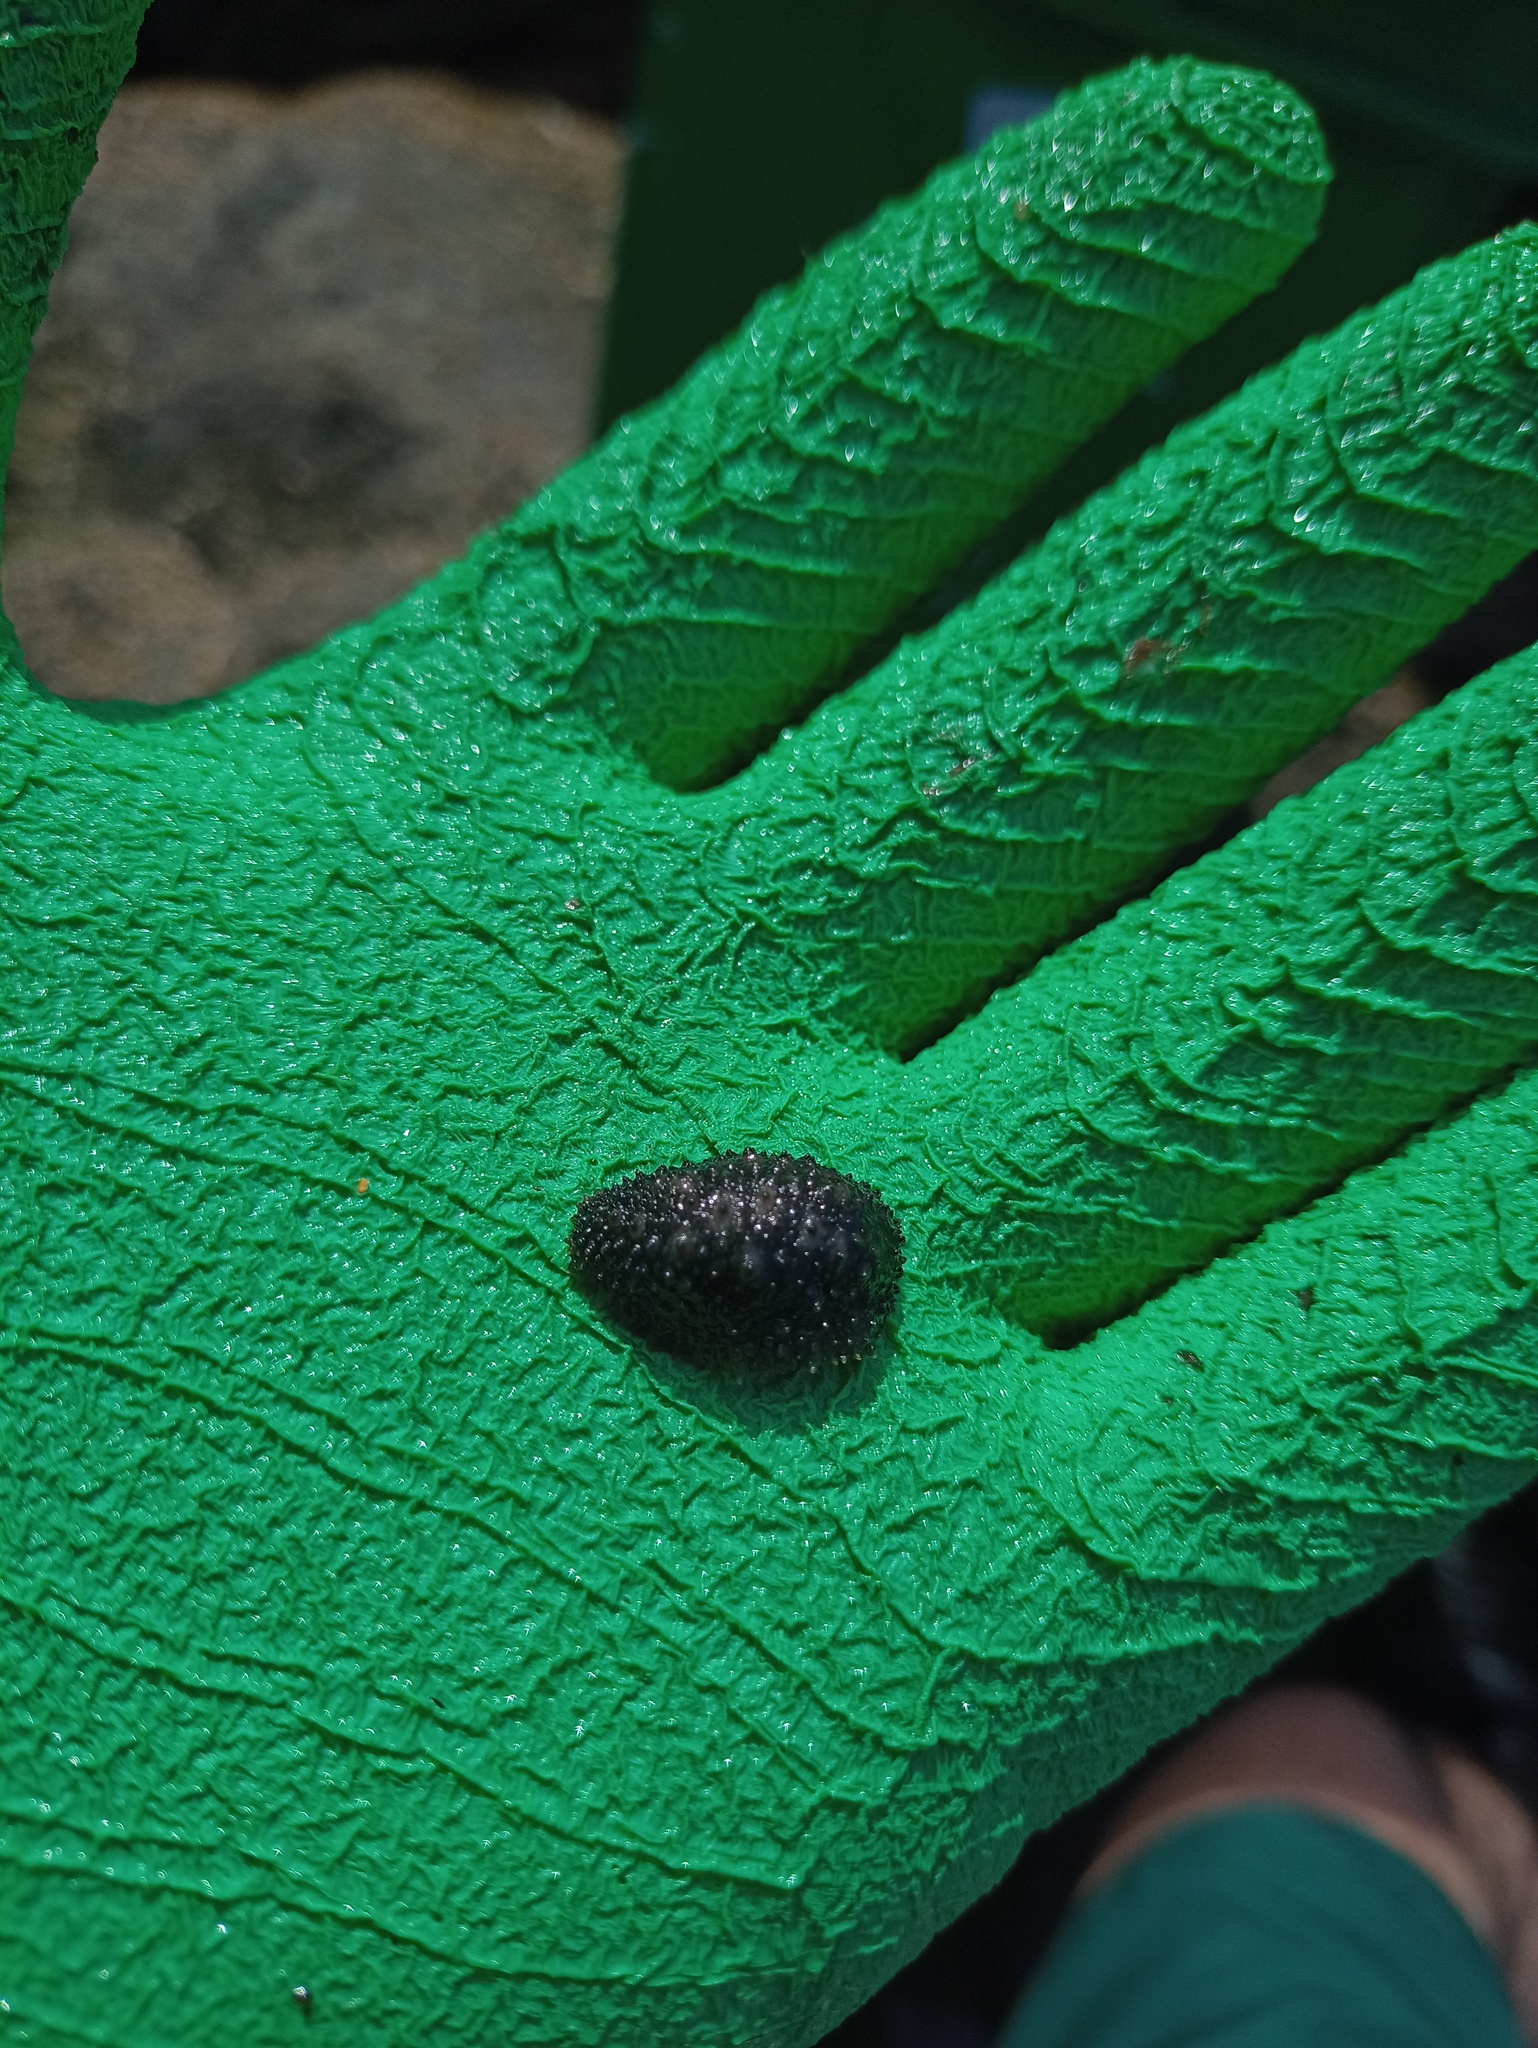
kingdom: Animalia
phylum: Mollusca
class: Gastropoda
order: Systellommatophora
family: Onchidiidae
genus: Onchidella
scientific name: Onchidella incisa
